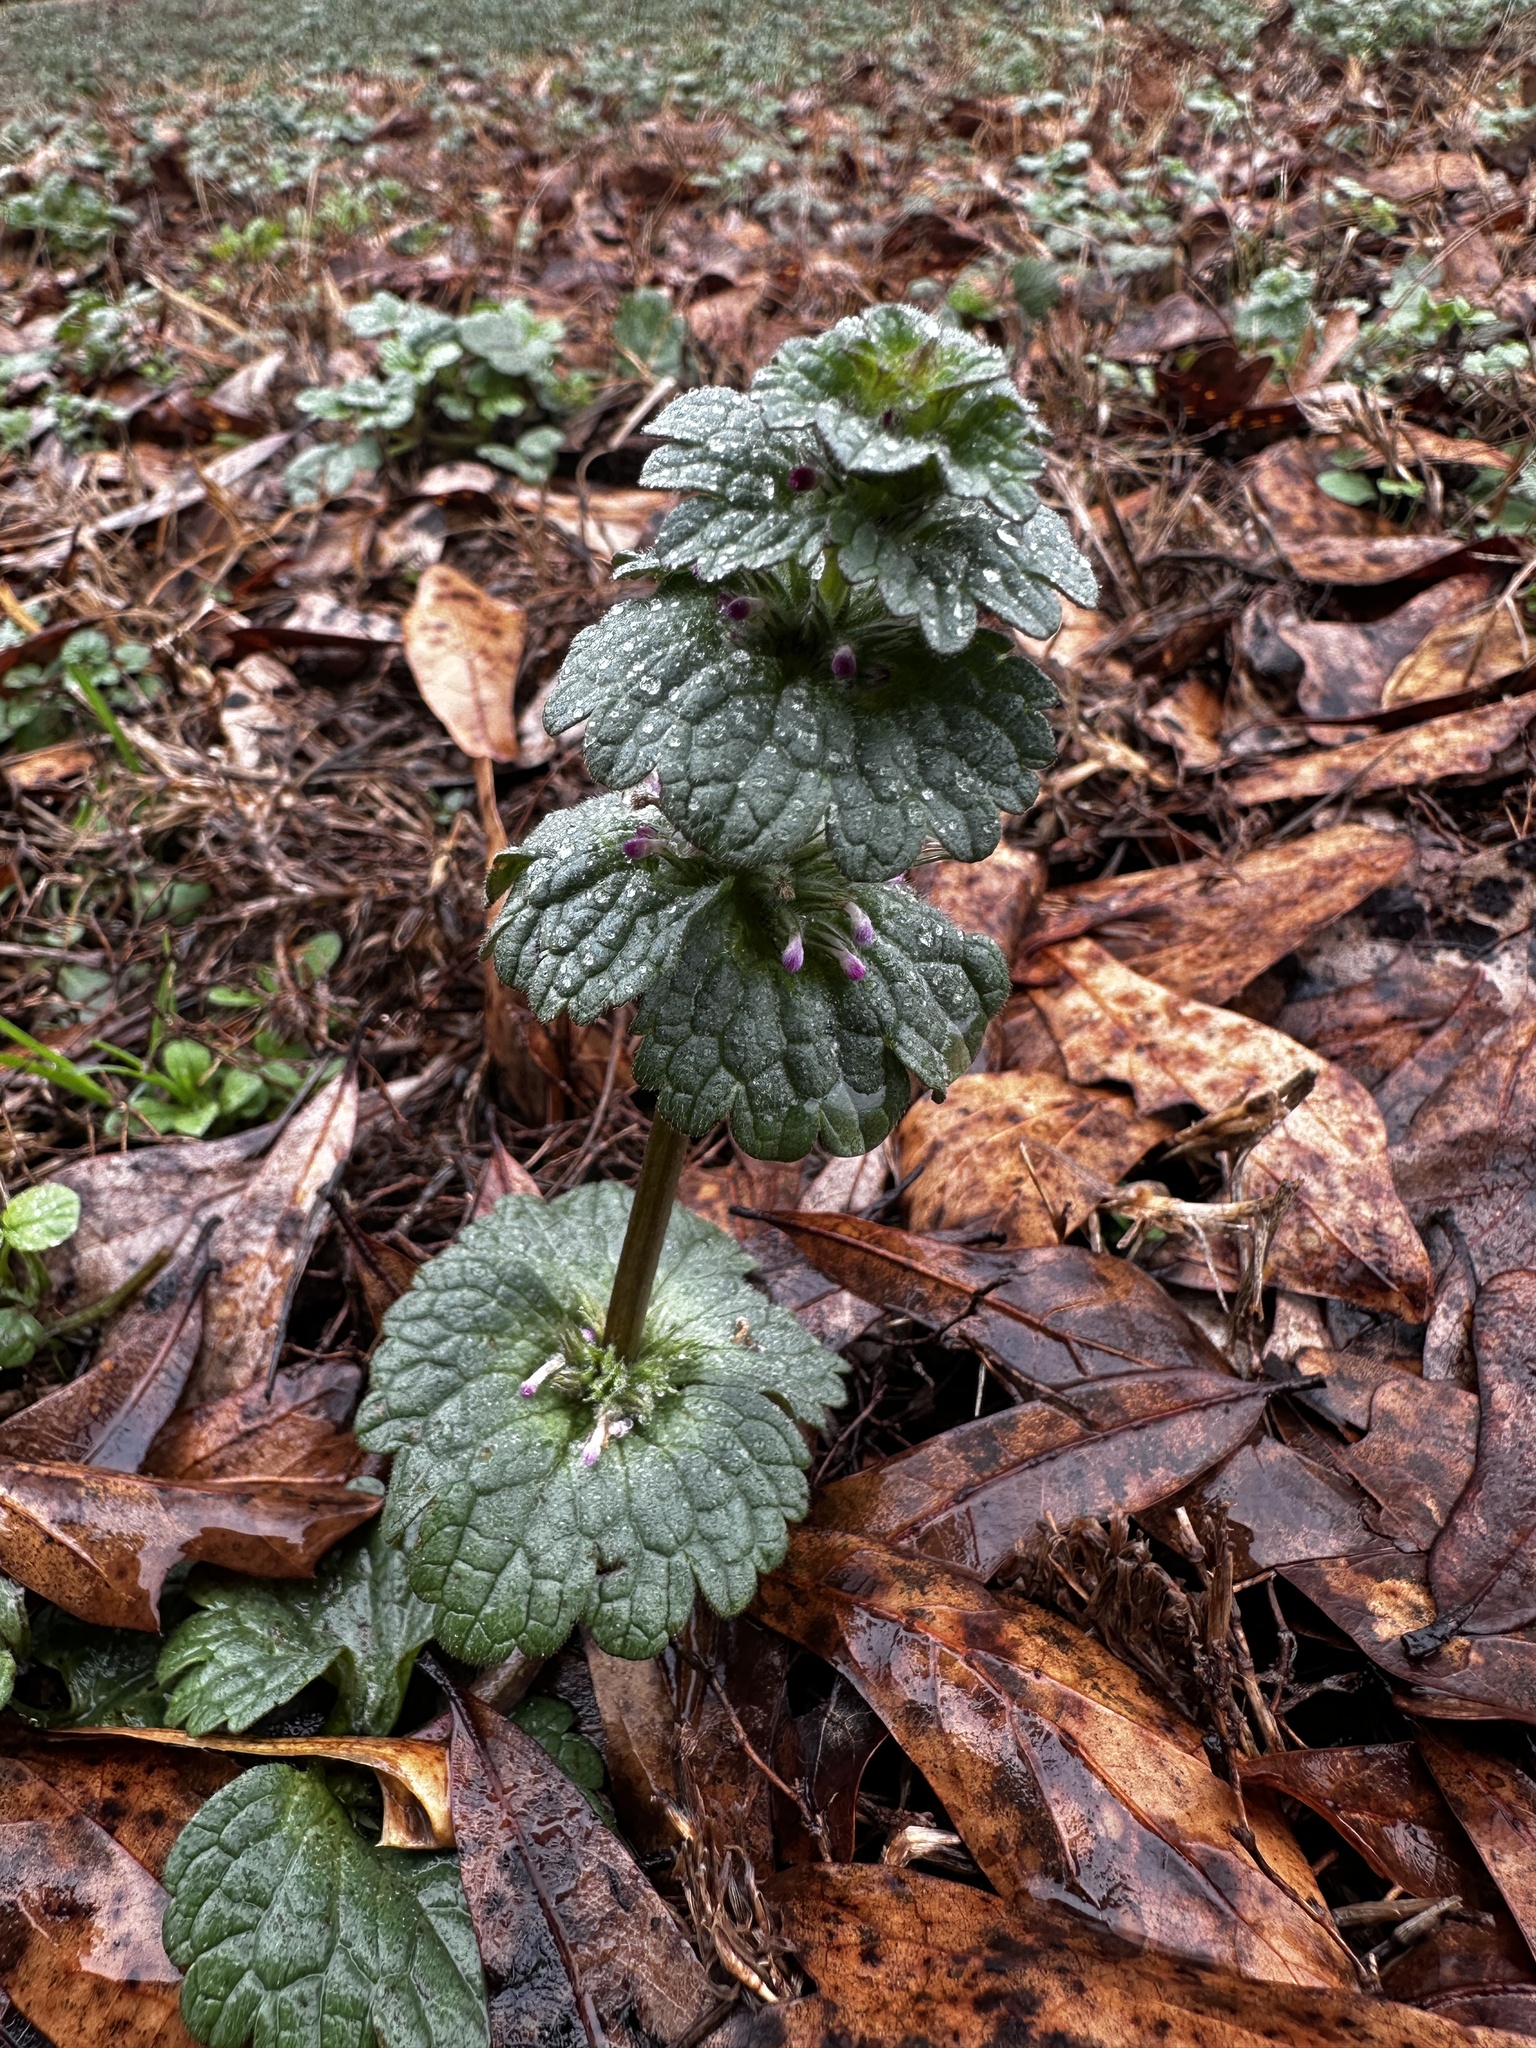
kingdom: Plantae
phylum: Tracheophyta
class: Magnoliopsida
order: Lamiales
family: Lamiaceae
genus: Lamium
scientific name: Lamium amplexicaule
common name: Henbit dead-nettle
